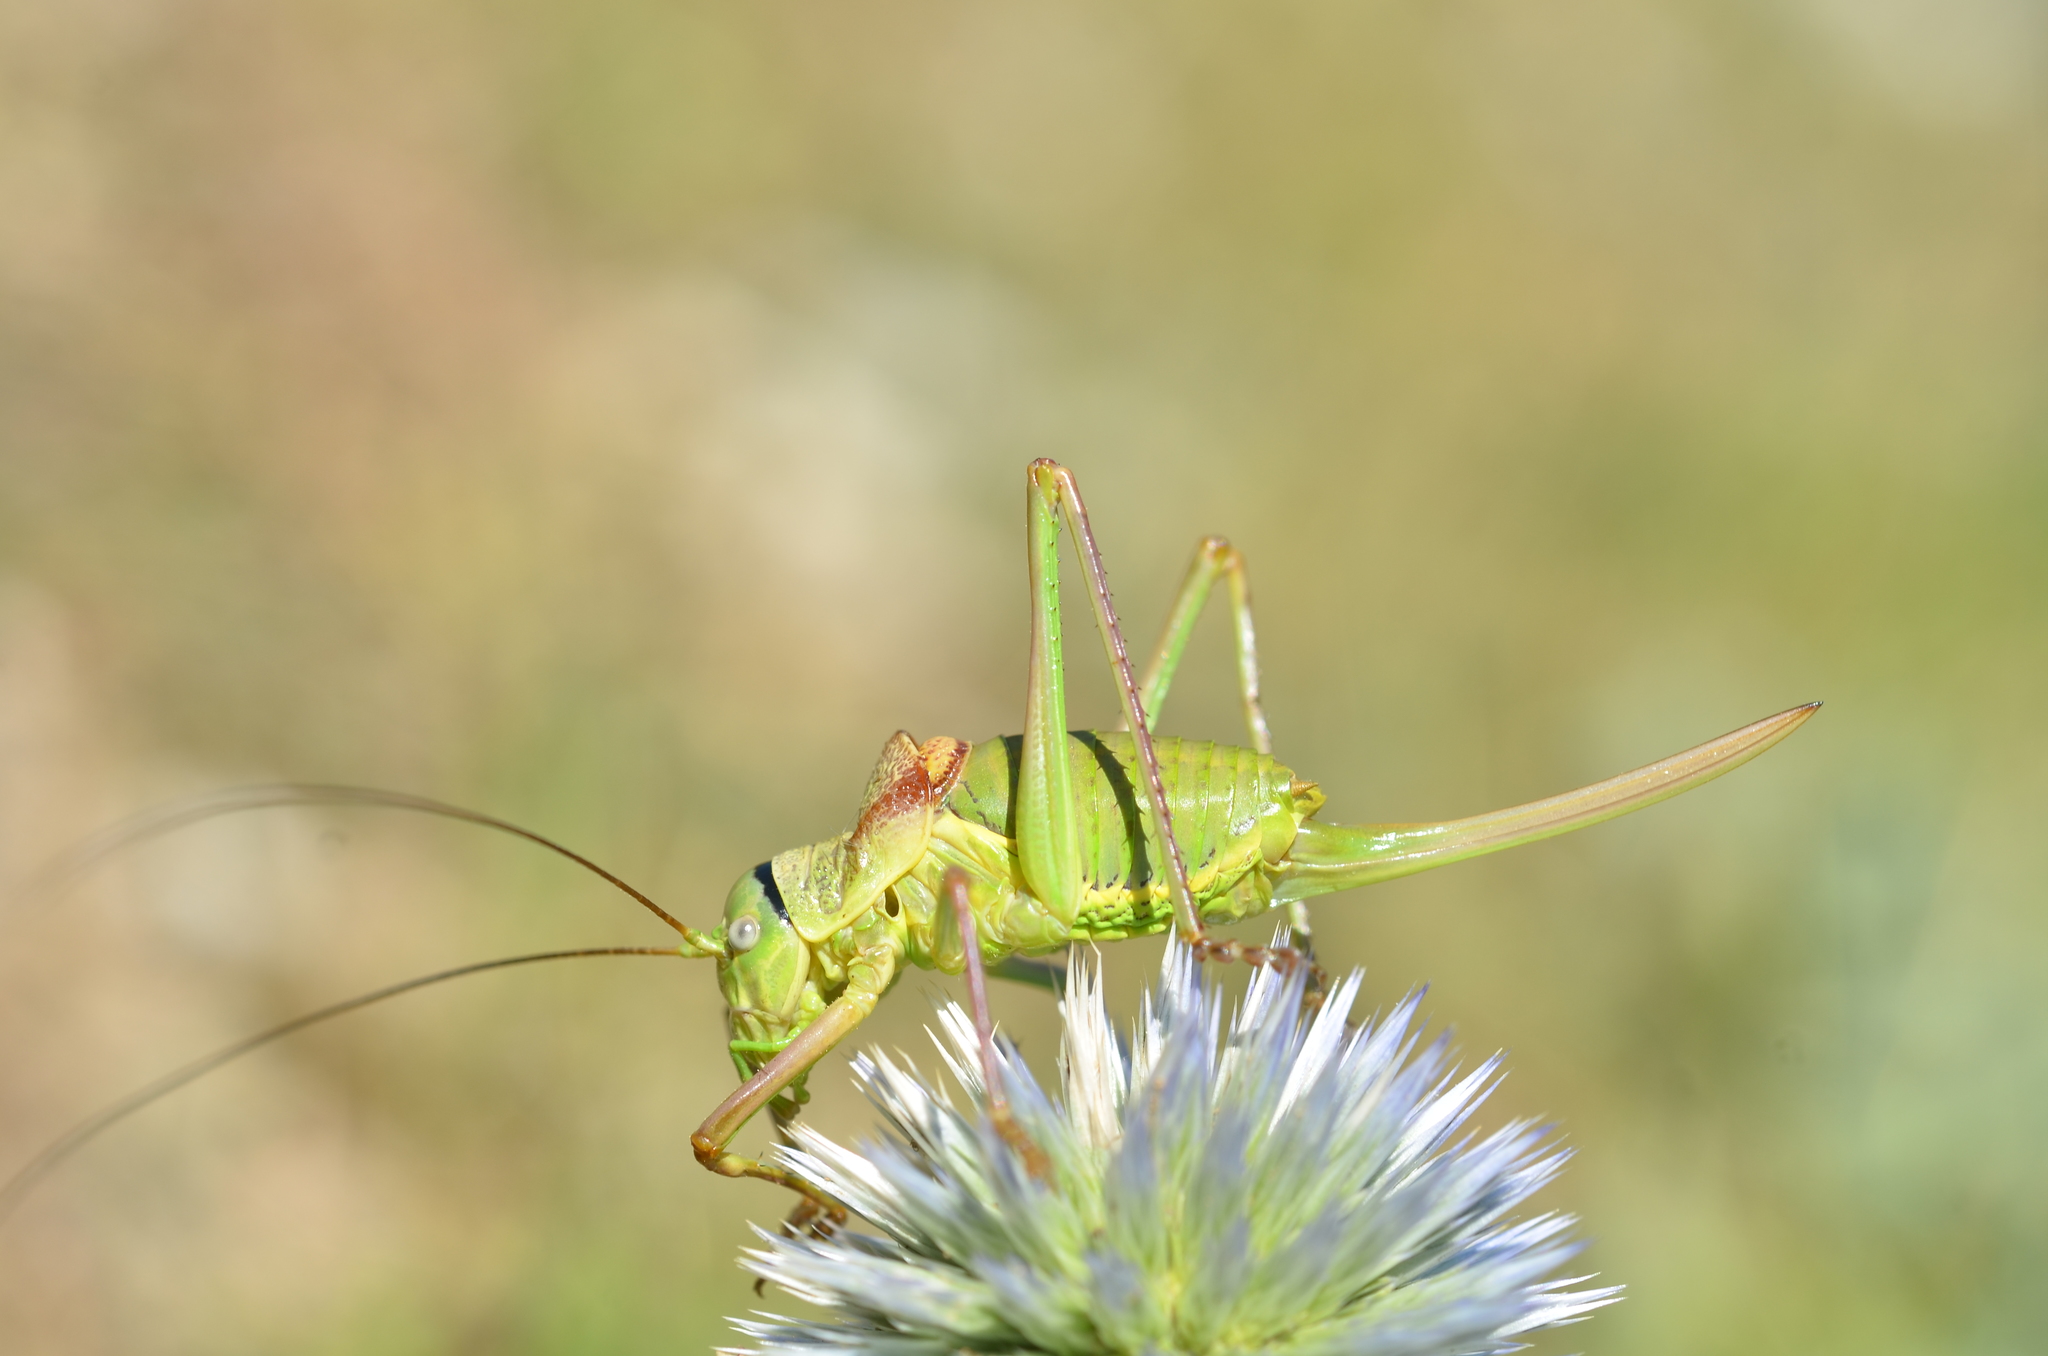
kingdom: Animalia
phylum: Arthropoda
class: Insecta
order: Orthoptera
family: Tettigoniidae
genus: Ephippiger
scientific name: Ephippiger diurnus
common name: Western saddle bush-cricket
